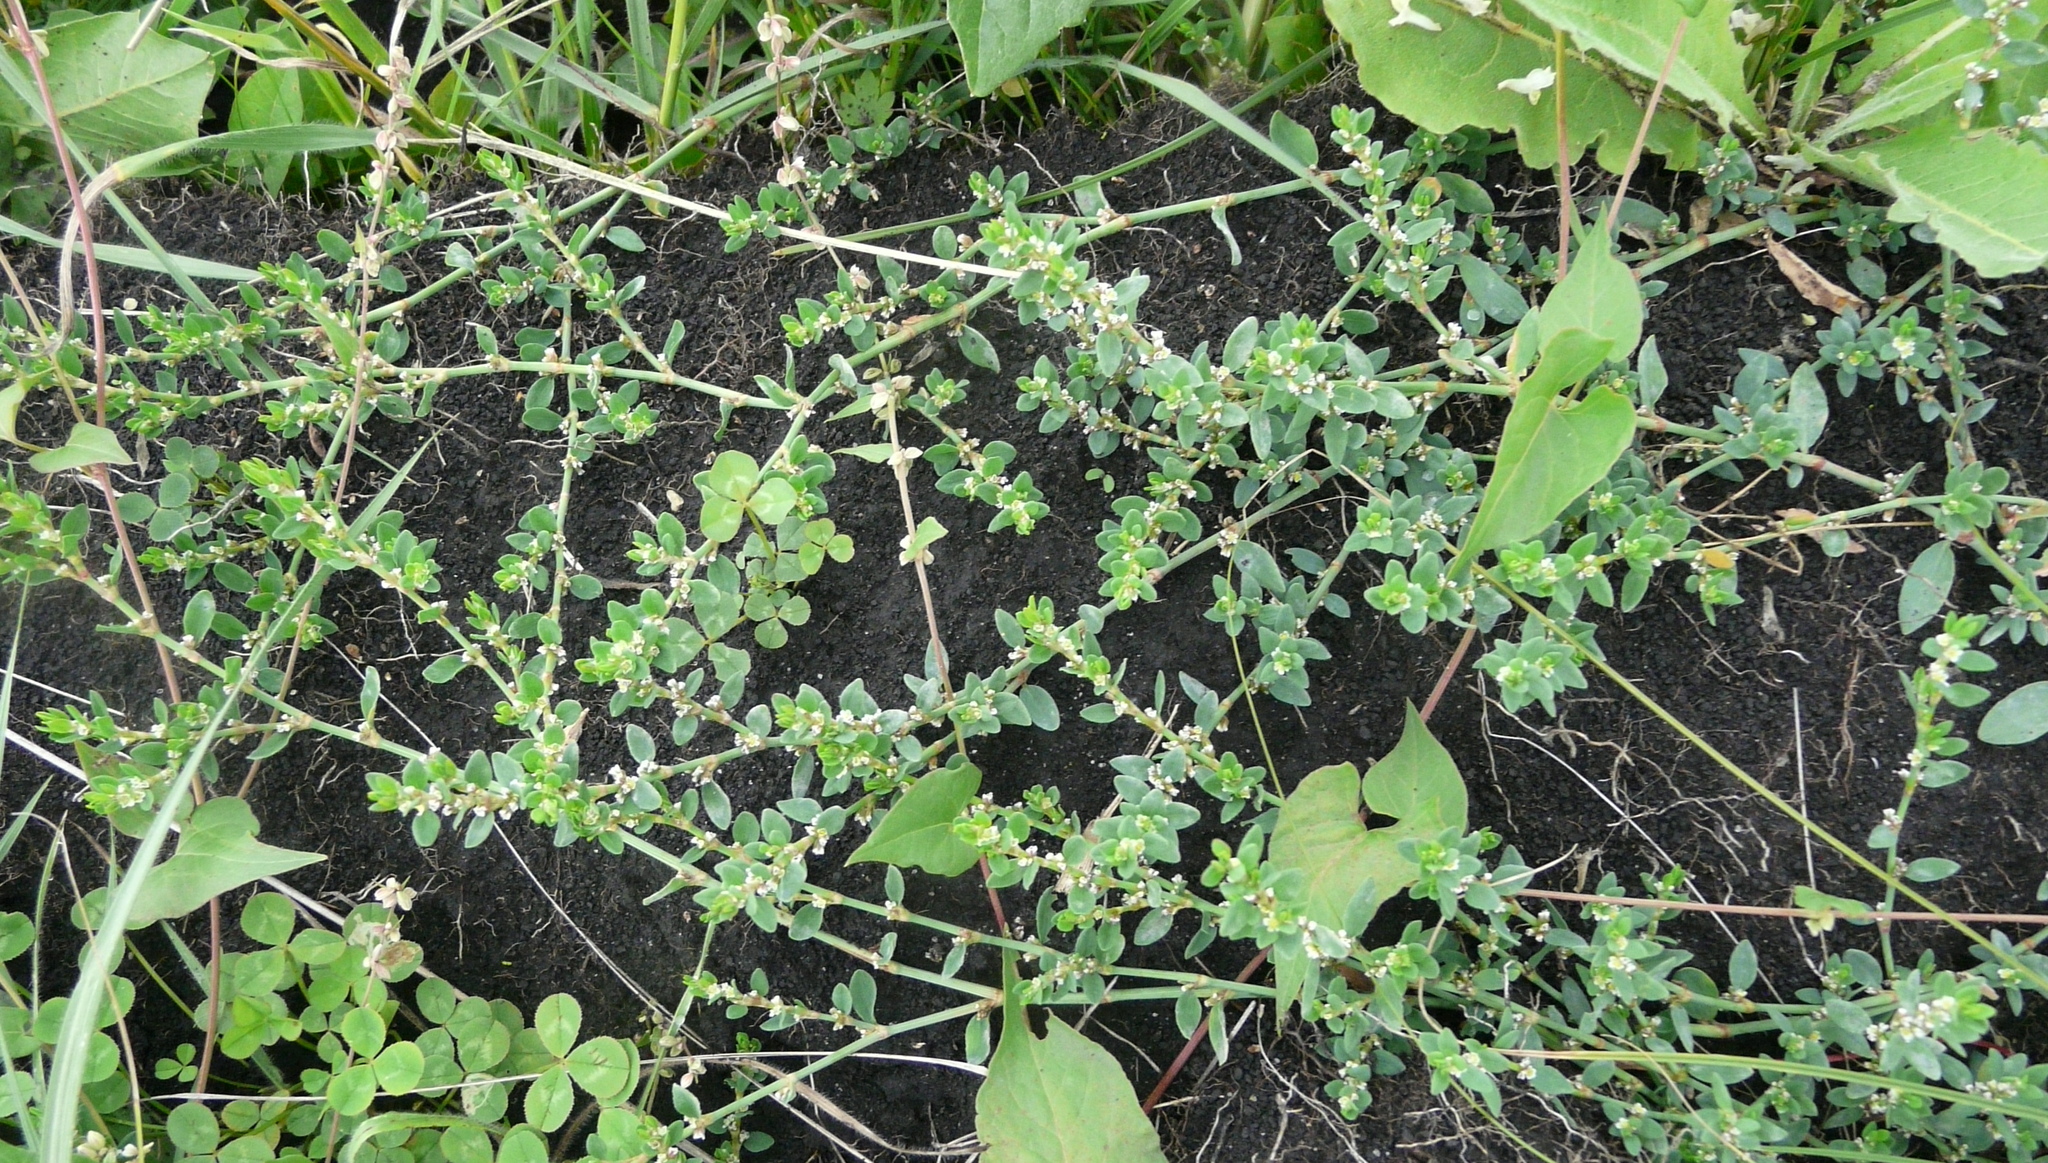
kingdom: Plantae
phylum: Tracheophyta
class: Magnoliopsida
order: Caryophyllales
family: Polygonaceae
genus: Polygonum
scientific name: Polygonum
